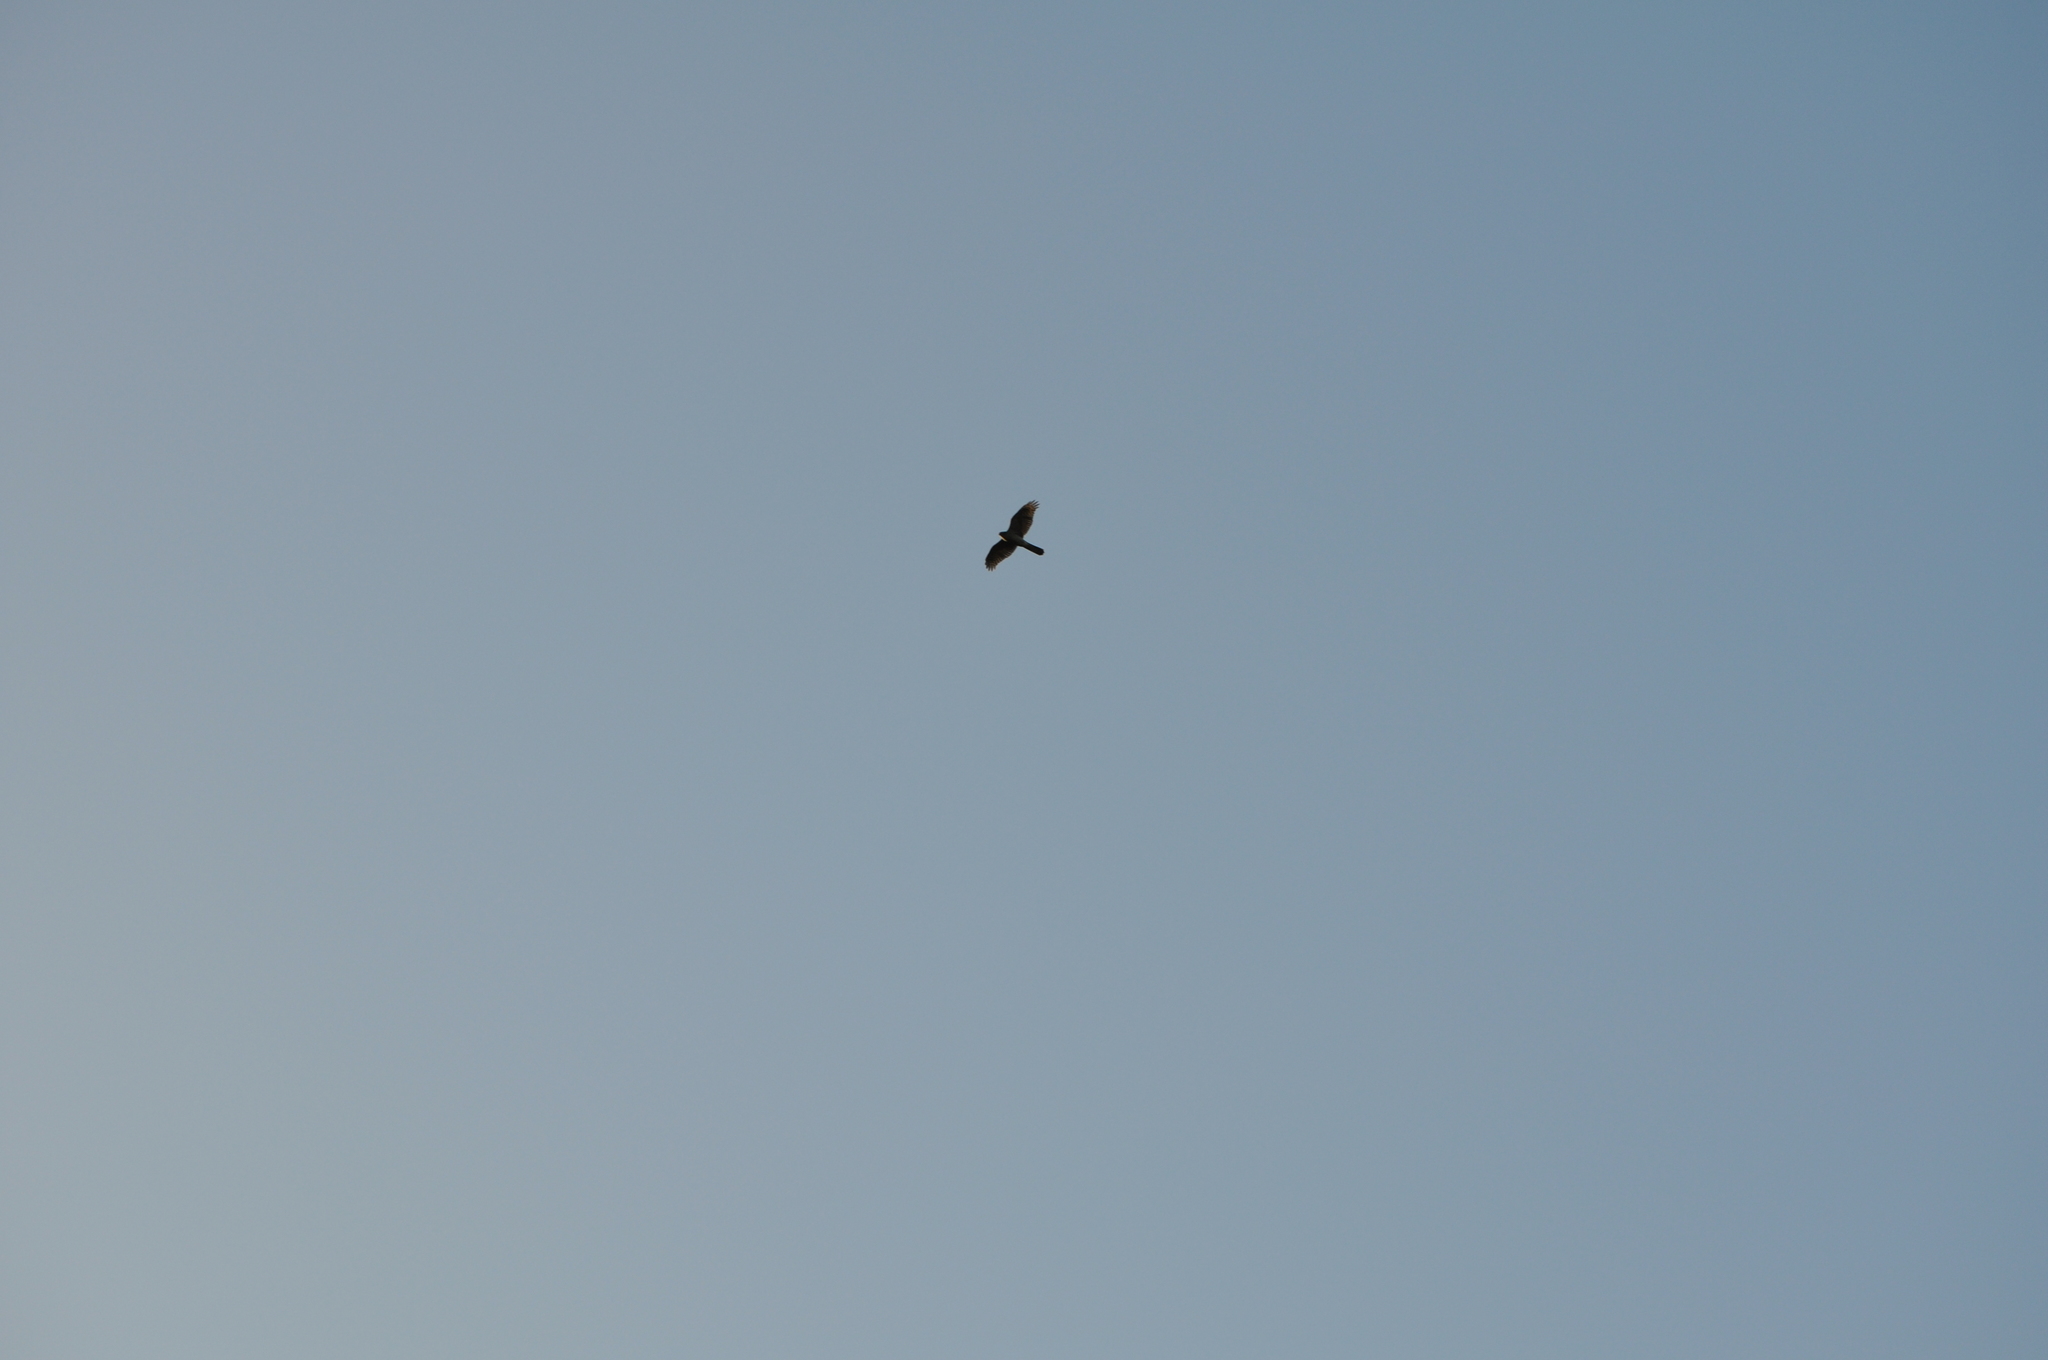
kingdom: Animalia
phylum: Chordata
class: Aves
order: Accipitriformes
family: Accipitridae
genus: Accipiter
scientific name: Accipiter nisus
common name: Eurasian sparrowhawk
